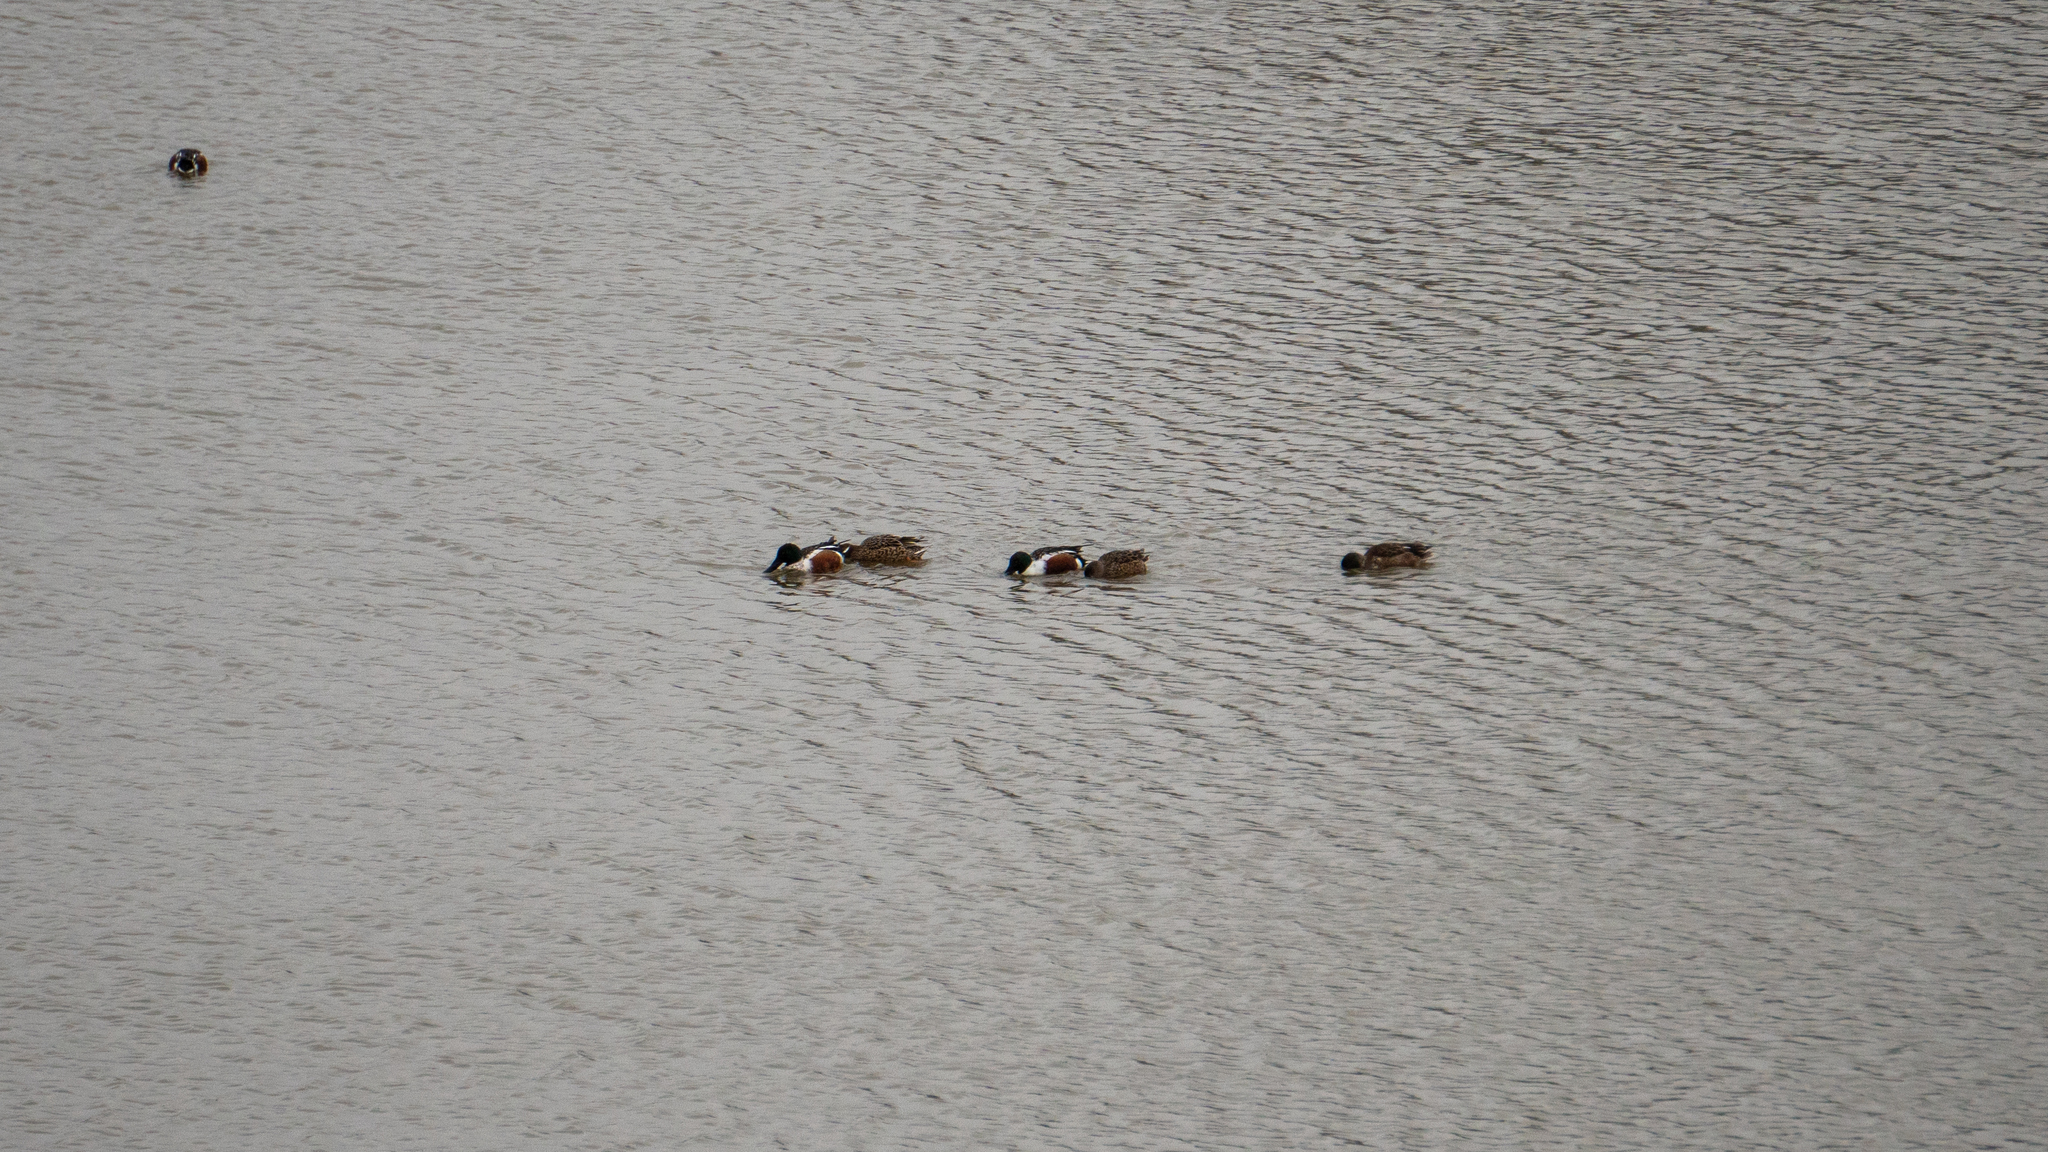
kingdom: Animalia
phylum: Chordata
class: Aves
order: Anseriformes
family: Anatidae
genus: Spatula
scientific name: Spatula clypeata
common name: Northern shoveler
